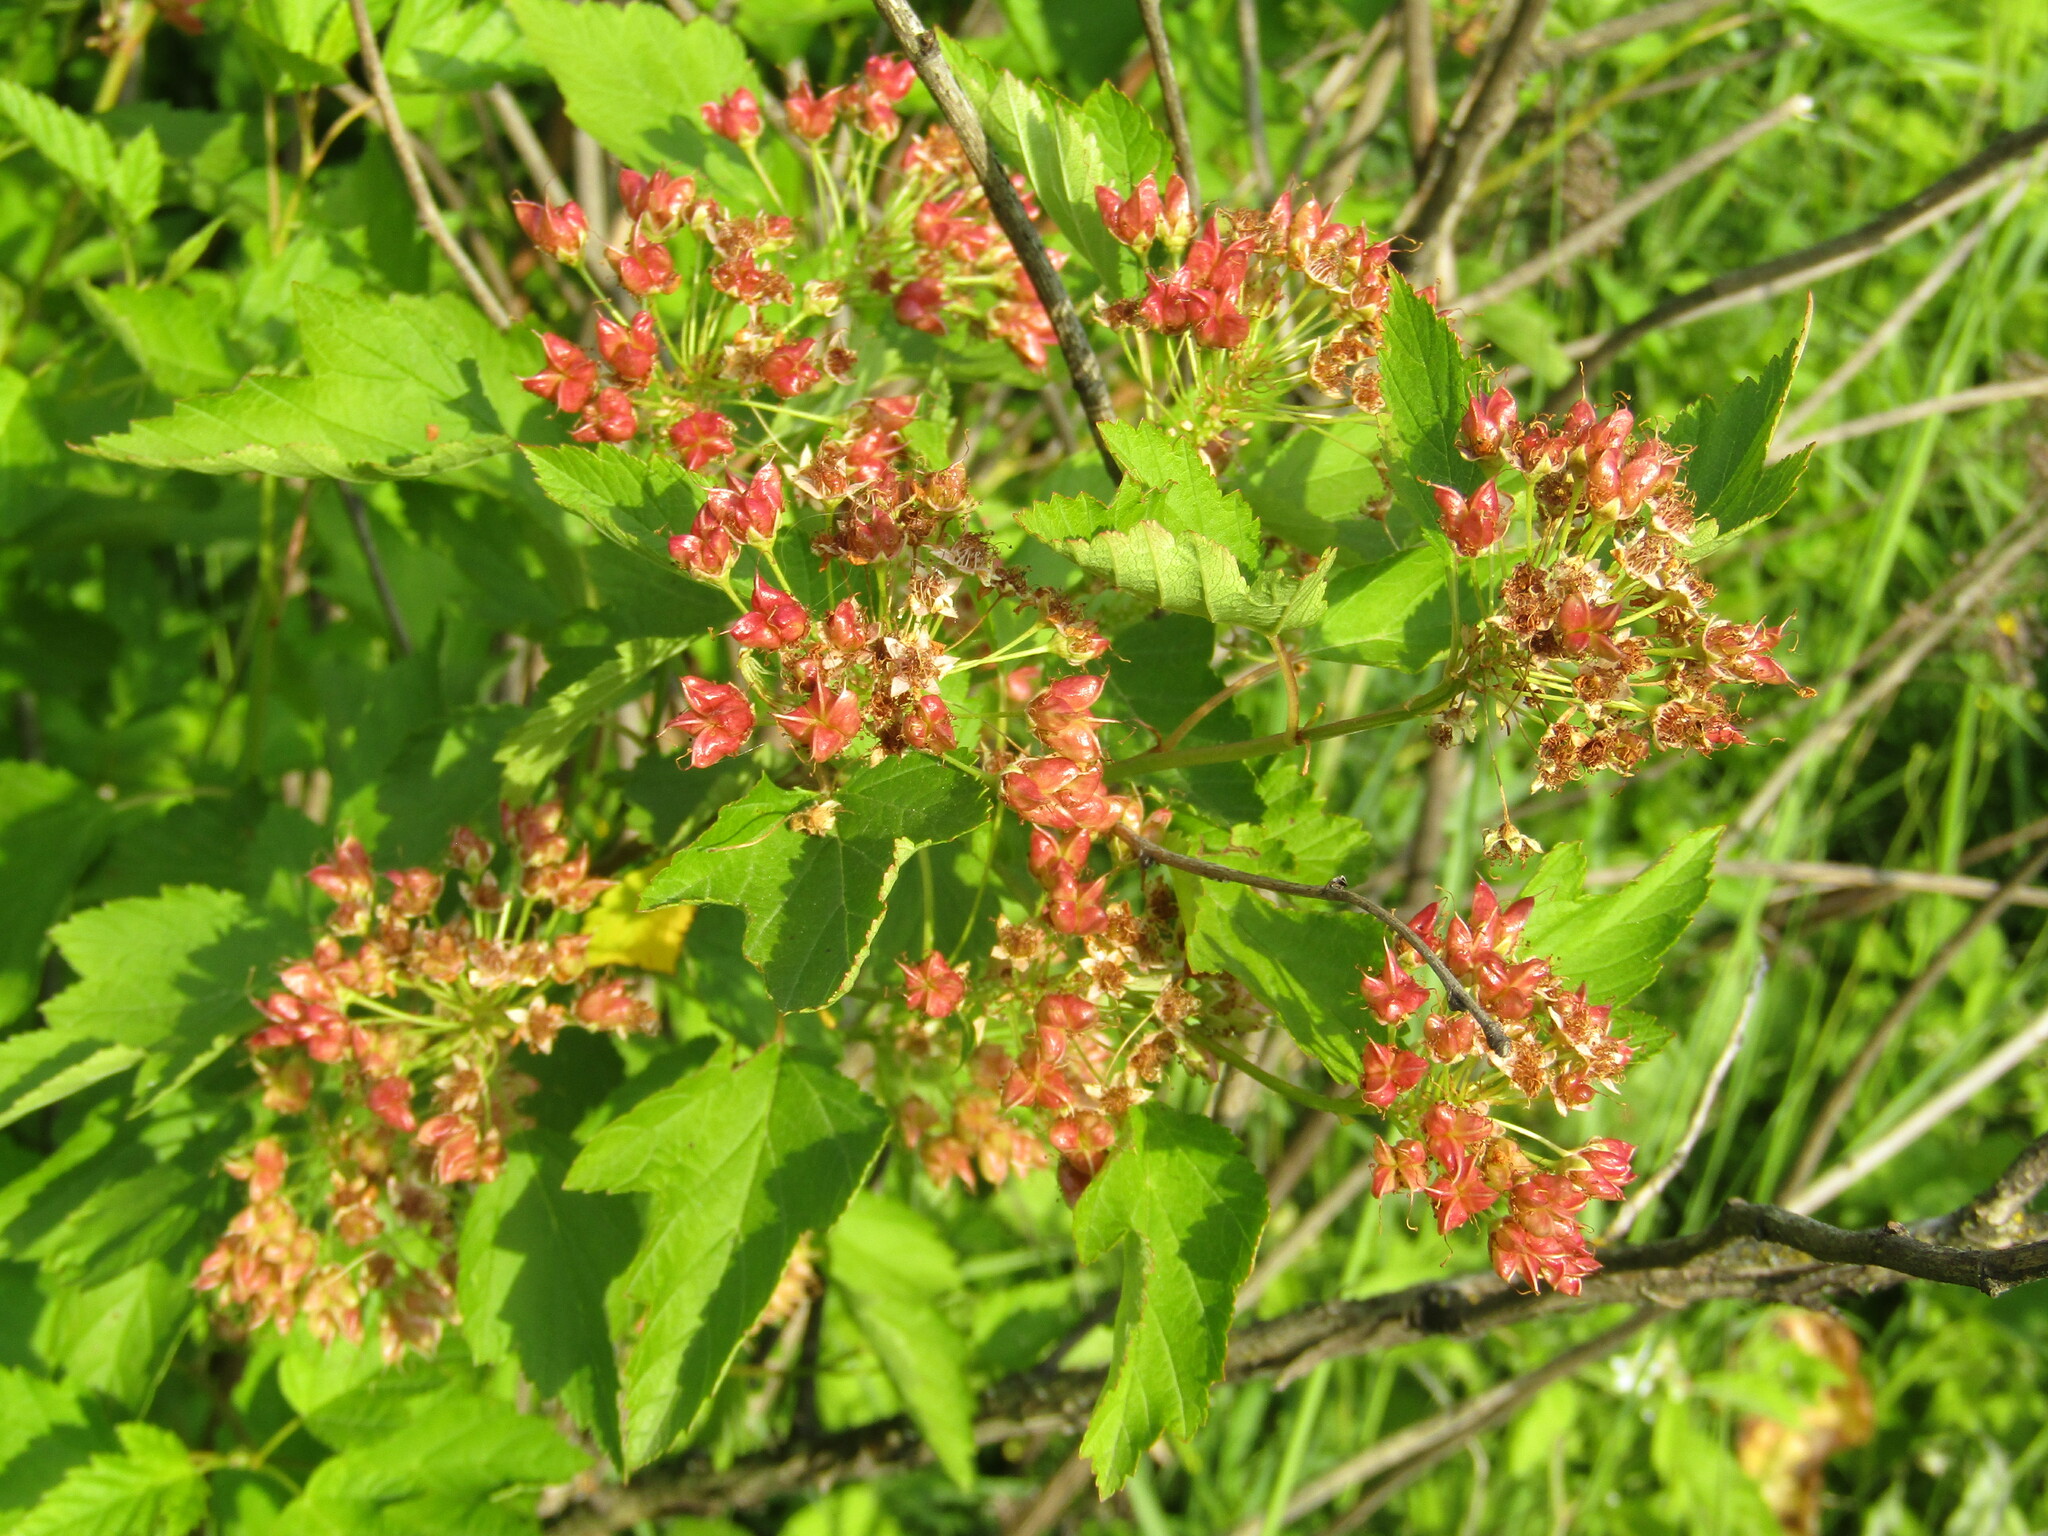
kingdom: Plantae
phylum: Tracheophyta
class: Magnoliopsida
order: Rosales
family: Rosaceae
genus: Physocarpus
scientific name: Physocarpus opulifolius
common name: Ninebark
